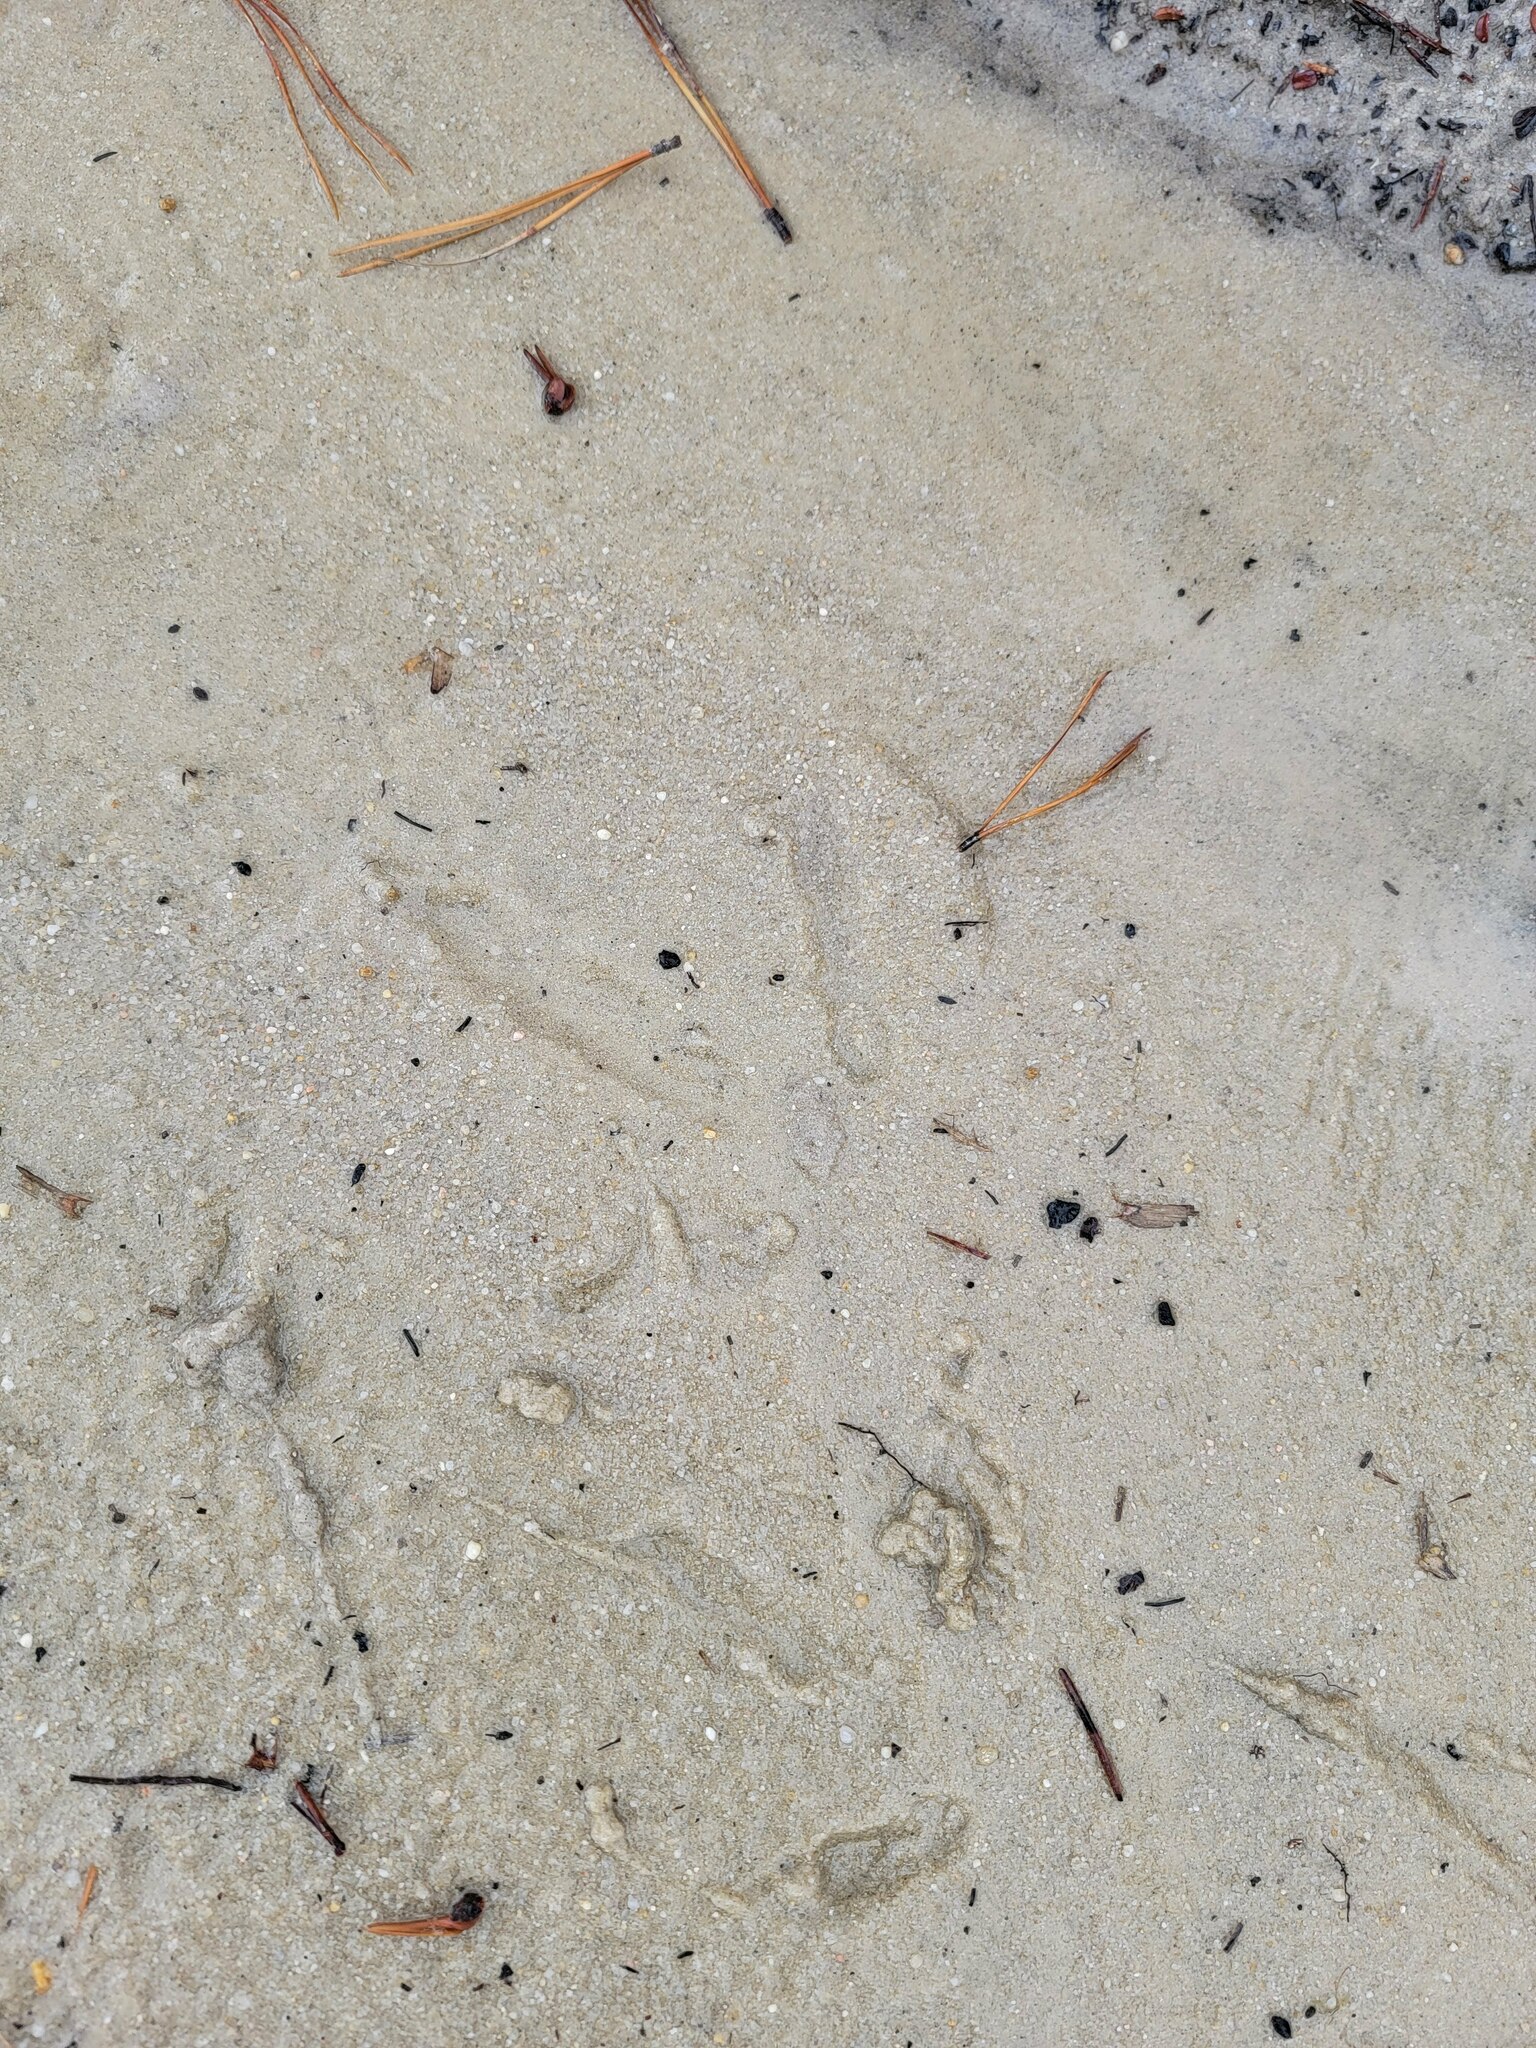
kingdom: Animalia
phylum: Chordata
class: Aves
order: Galliformes
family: Phasianidae
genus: Meleagris
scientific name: Meleagris gallopavo
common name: Wild turkey
